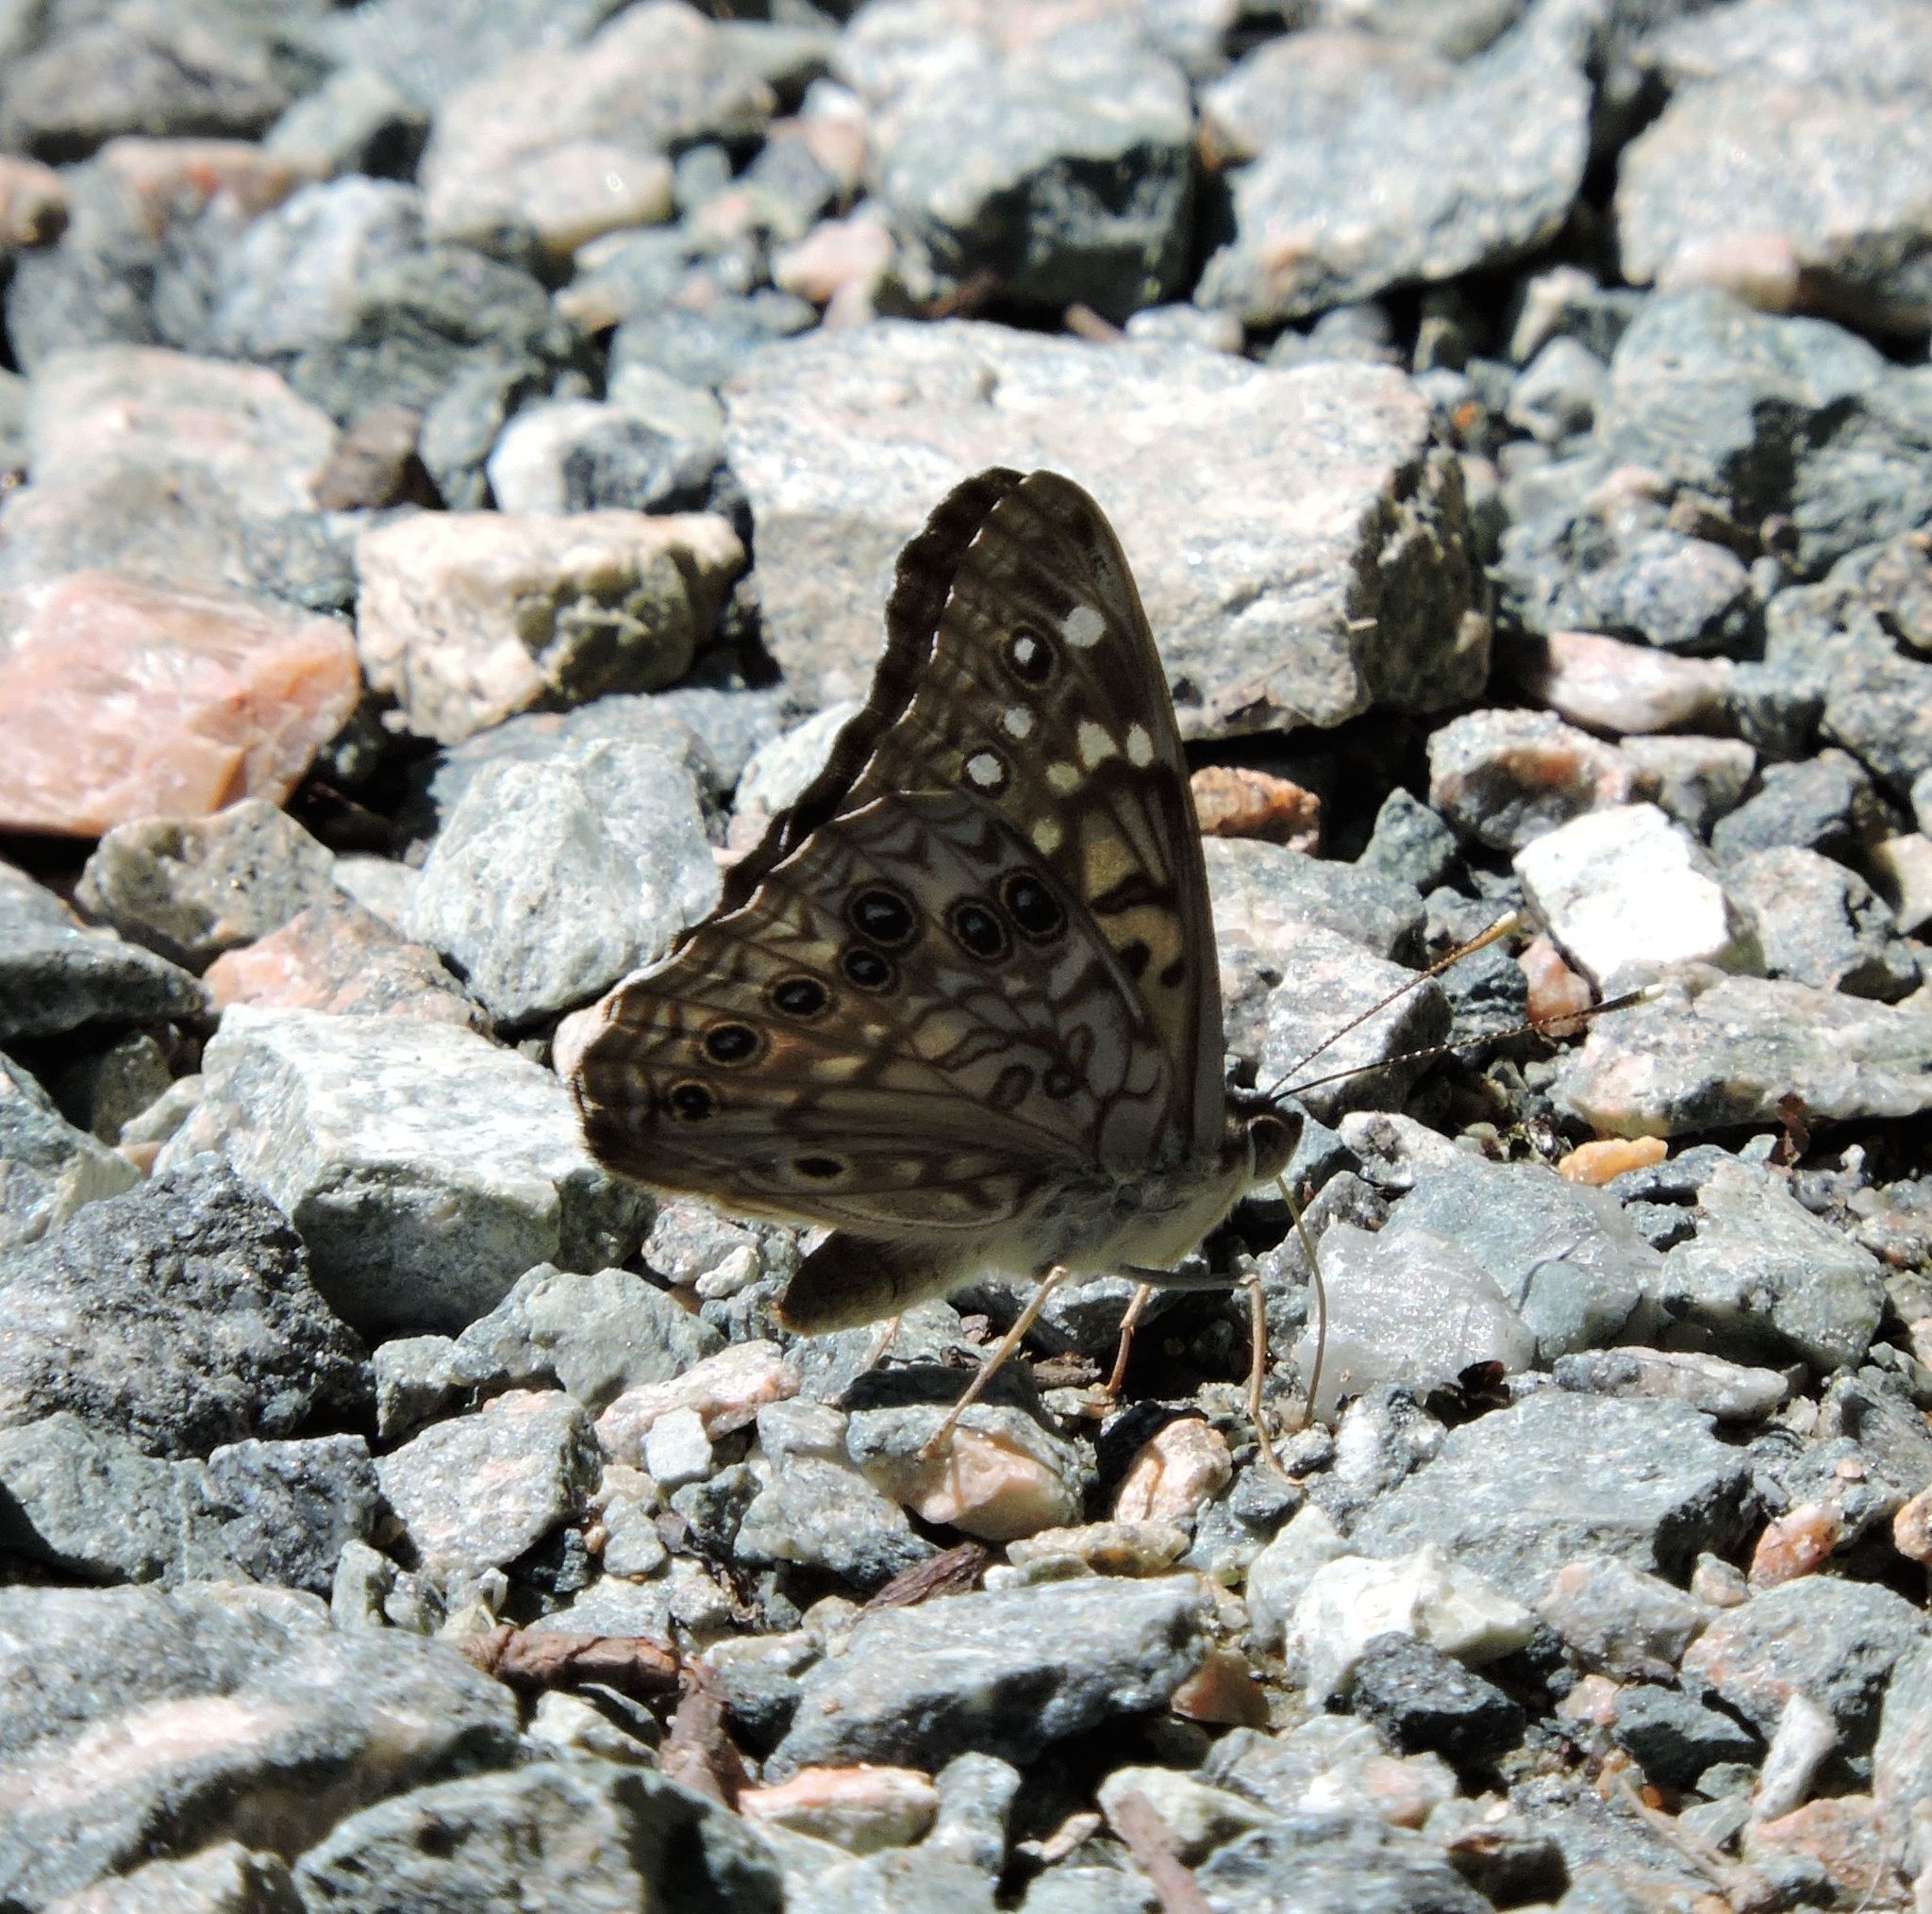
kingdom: Animalia
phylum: Arthropoda
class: Insecta
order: Lepidoptera
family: Nymphalidae
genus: Asterocampa
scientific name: Asterocampa celtis
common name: Hackberry emperor
